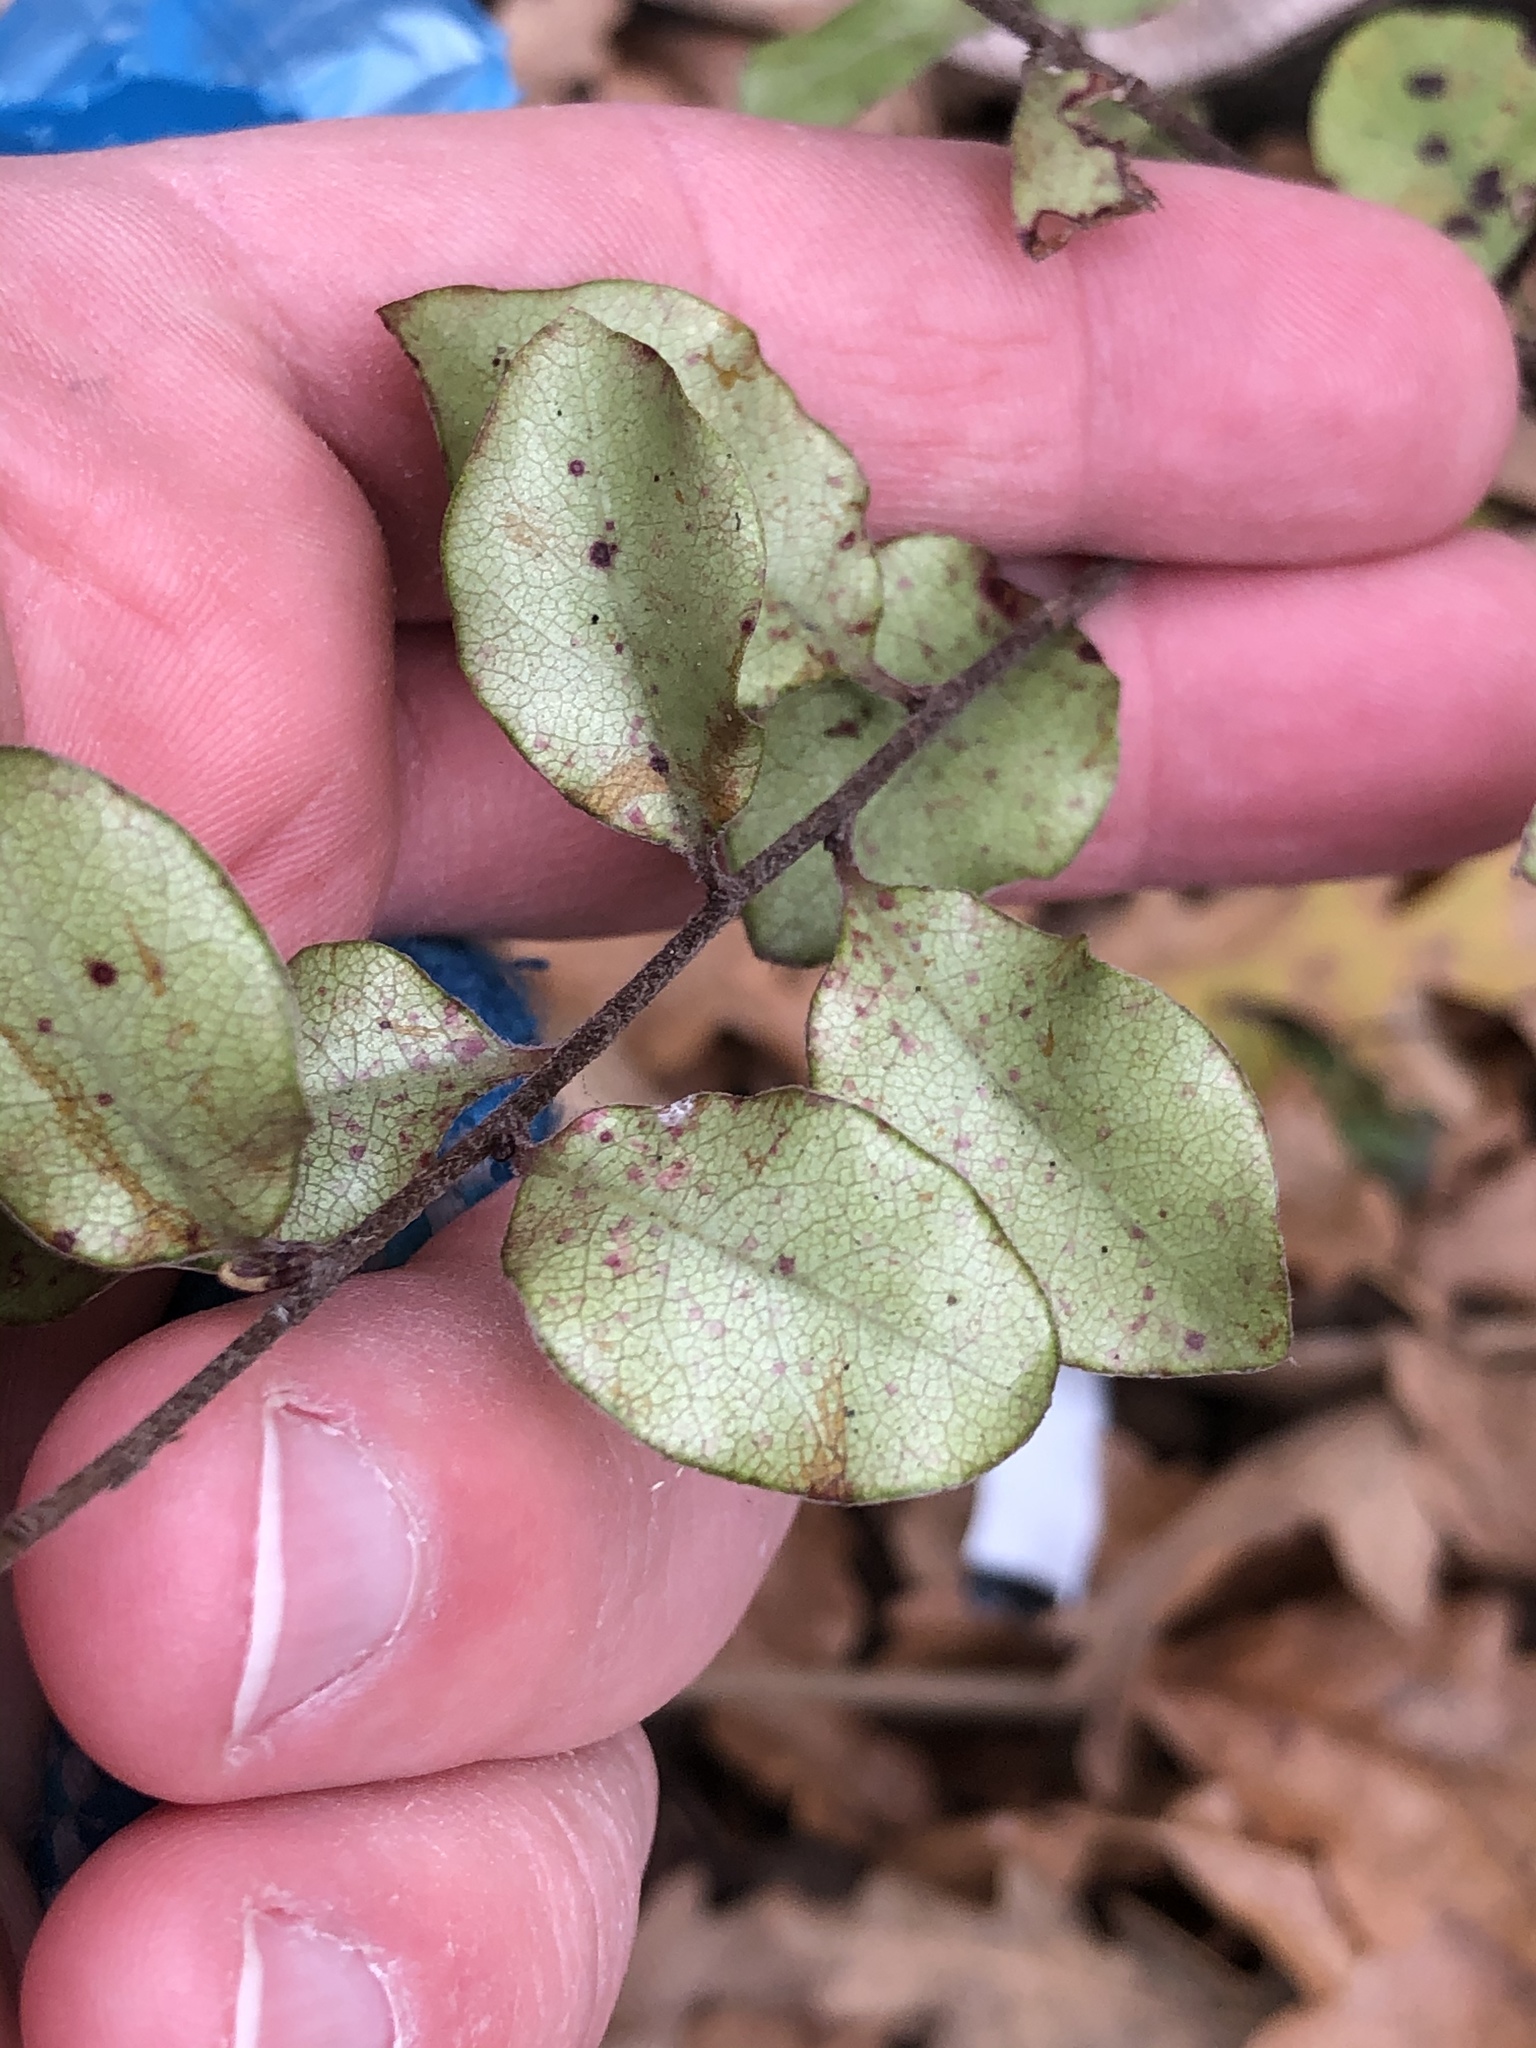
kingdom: Plantae
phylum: Tracheophyta
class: Magnoliopsida
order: Apiales
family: Pittosporaceae
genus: Pittosporum
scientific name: Pittosporum tenuifolium
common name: Kohuhu
